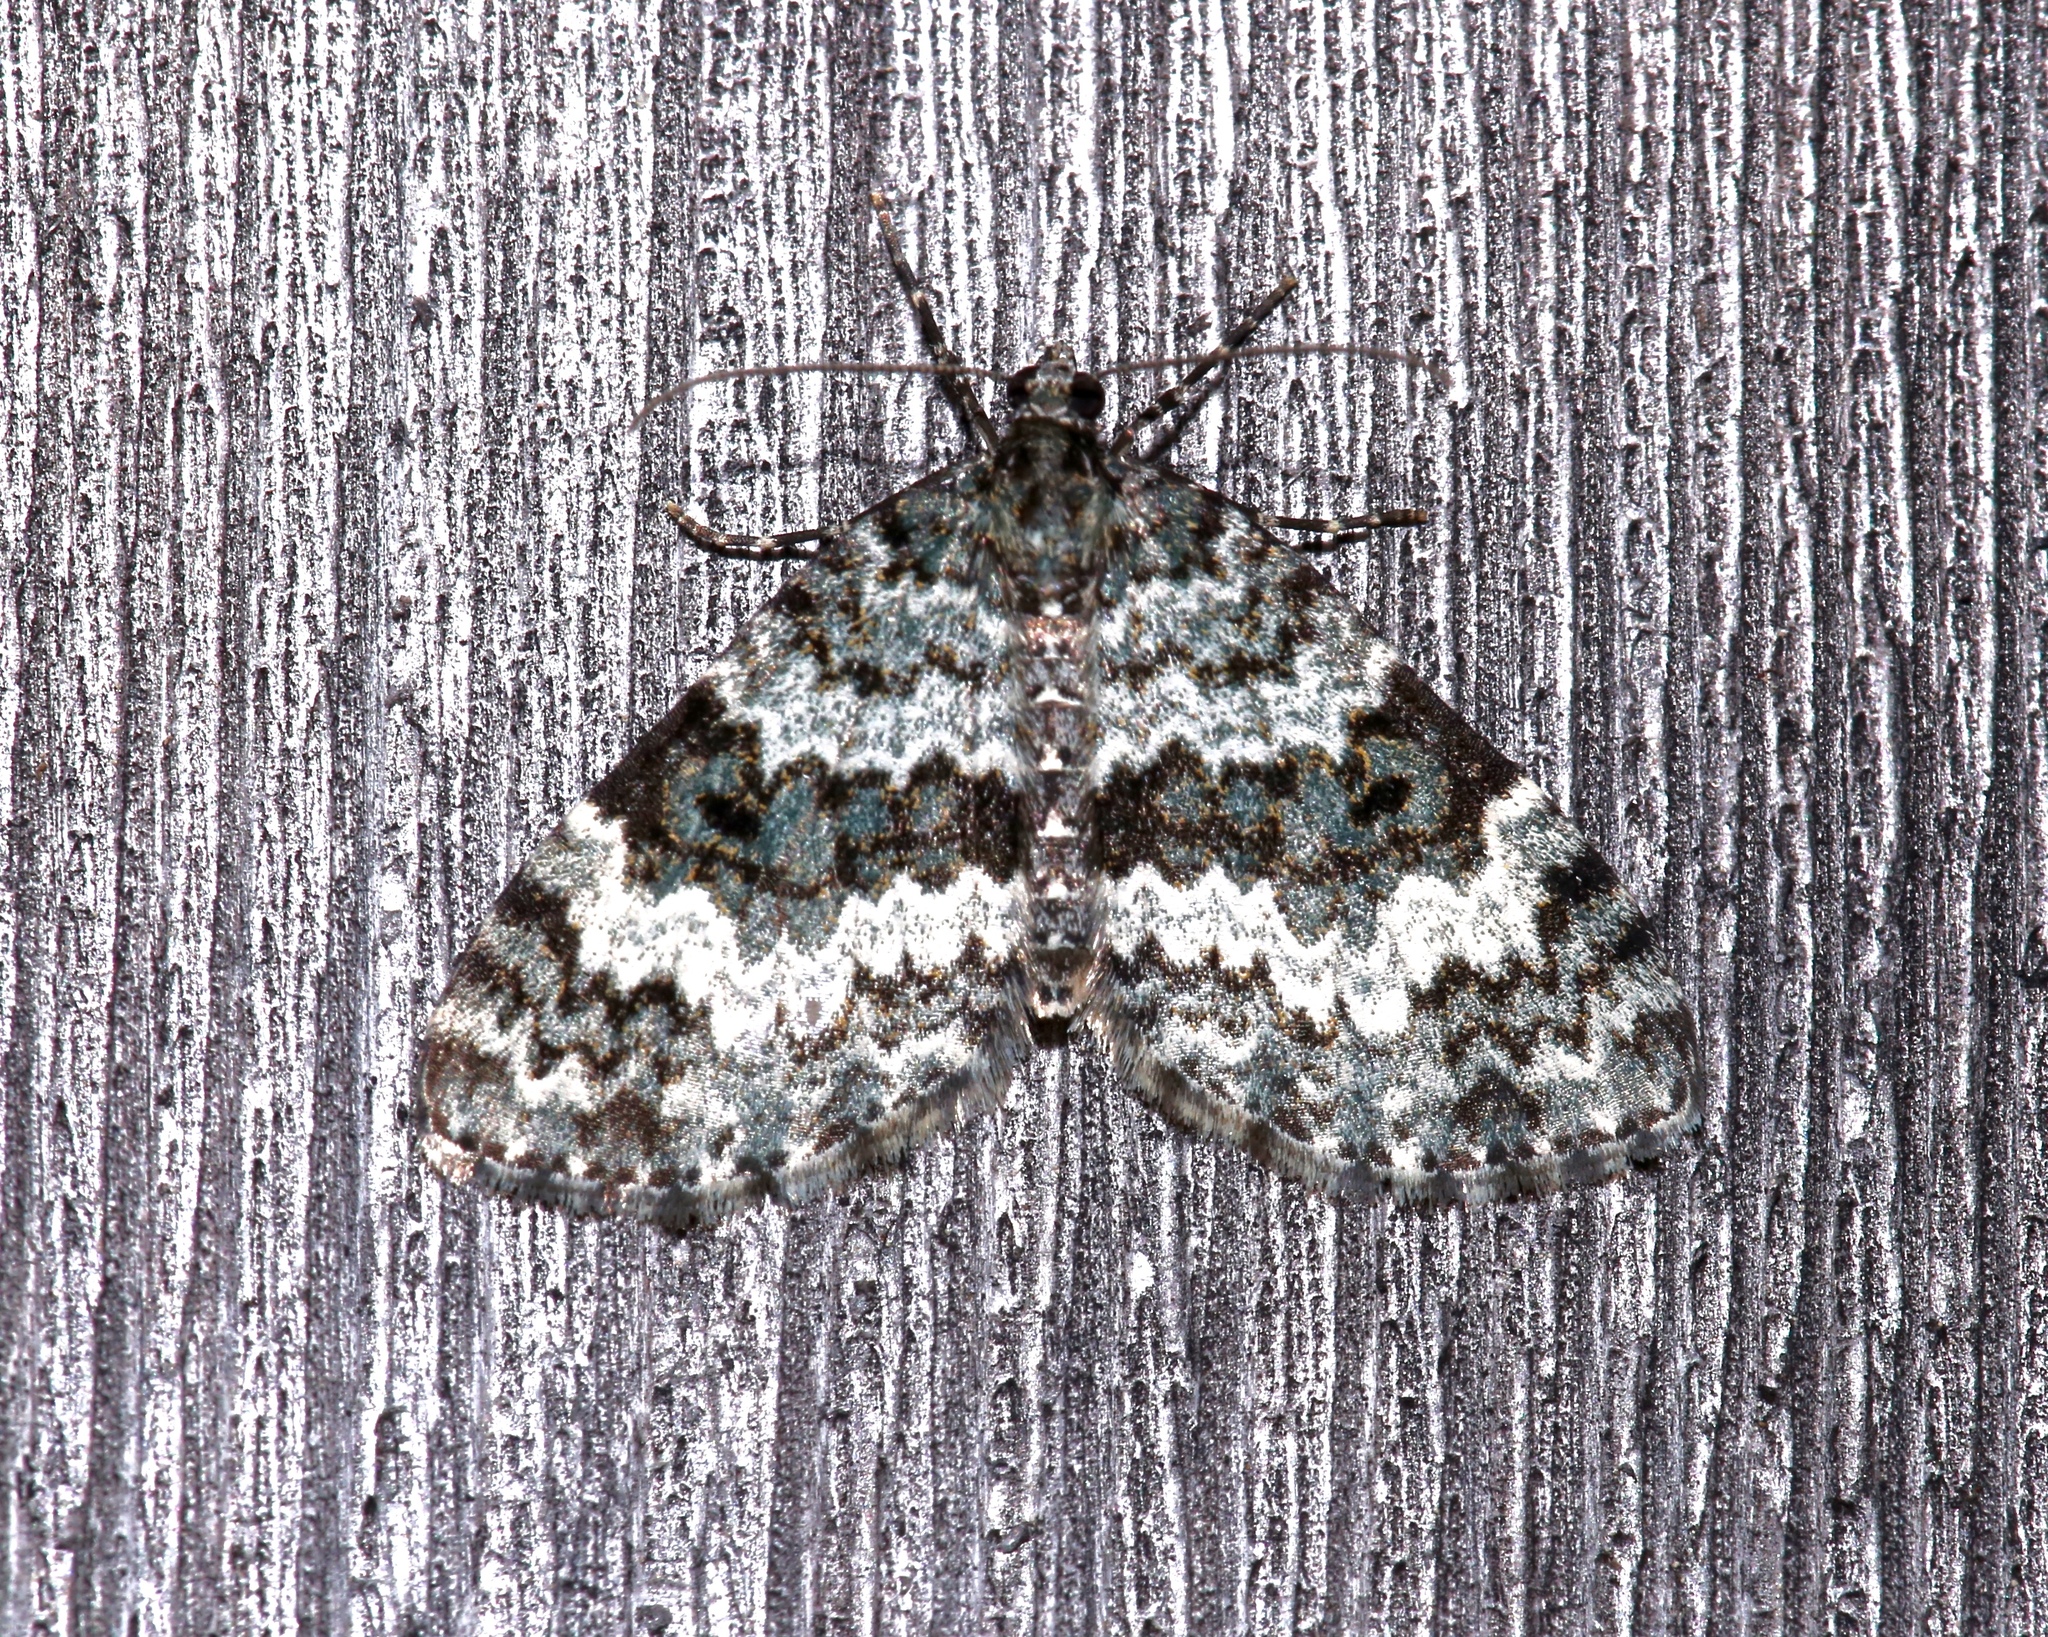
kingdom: Animalia
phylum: Arthropoda
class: Insecta
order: Lepidoptera
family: Geometridae
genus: Spargania
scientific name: Spargania magnoliata
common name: Double-banded carpet
